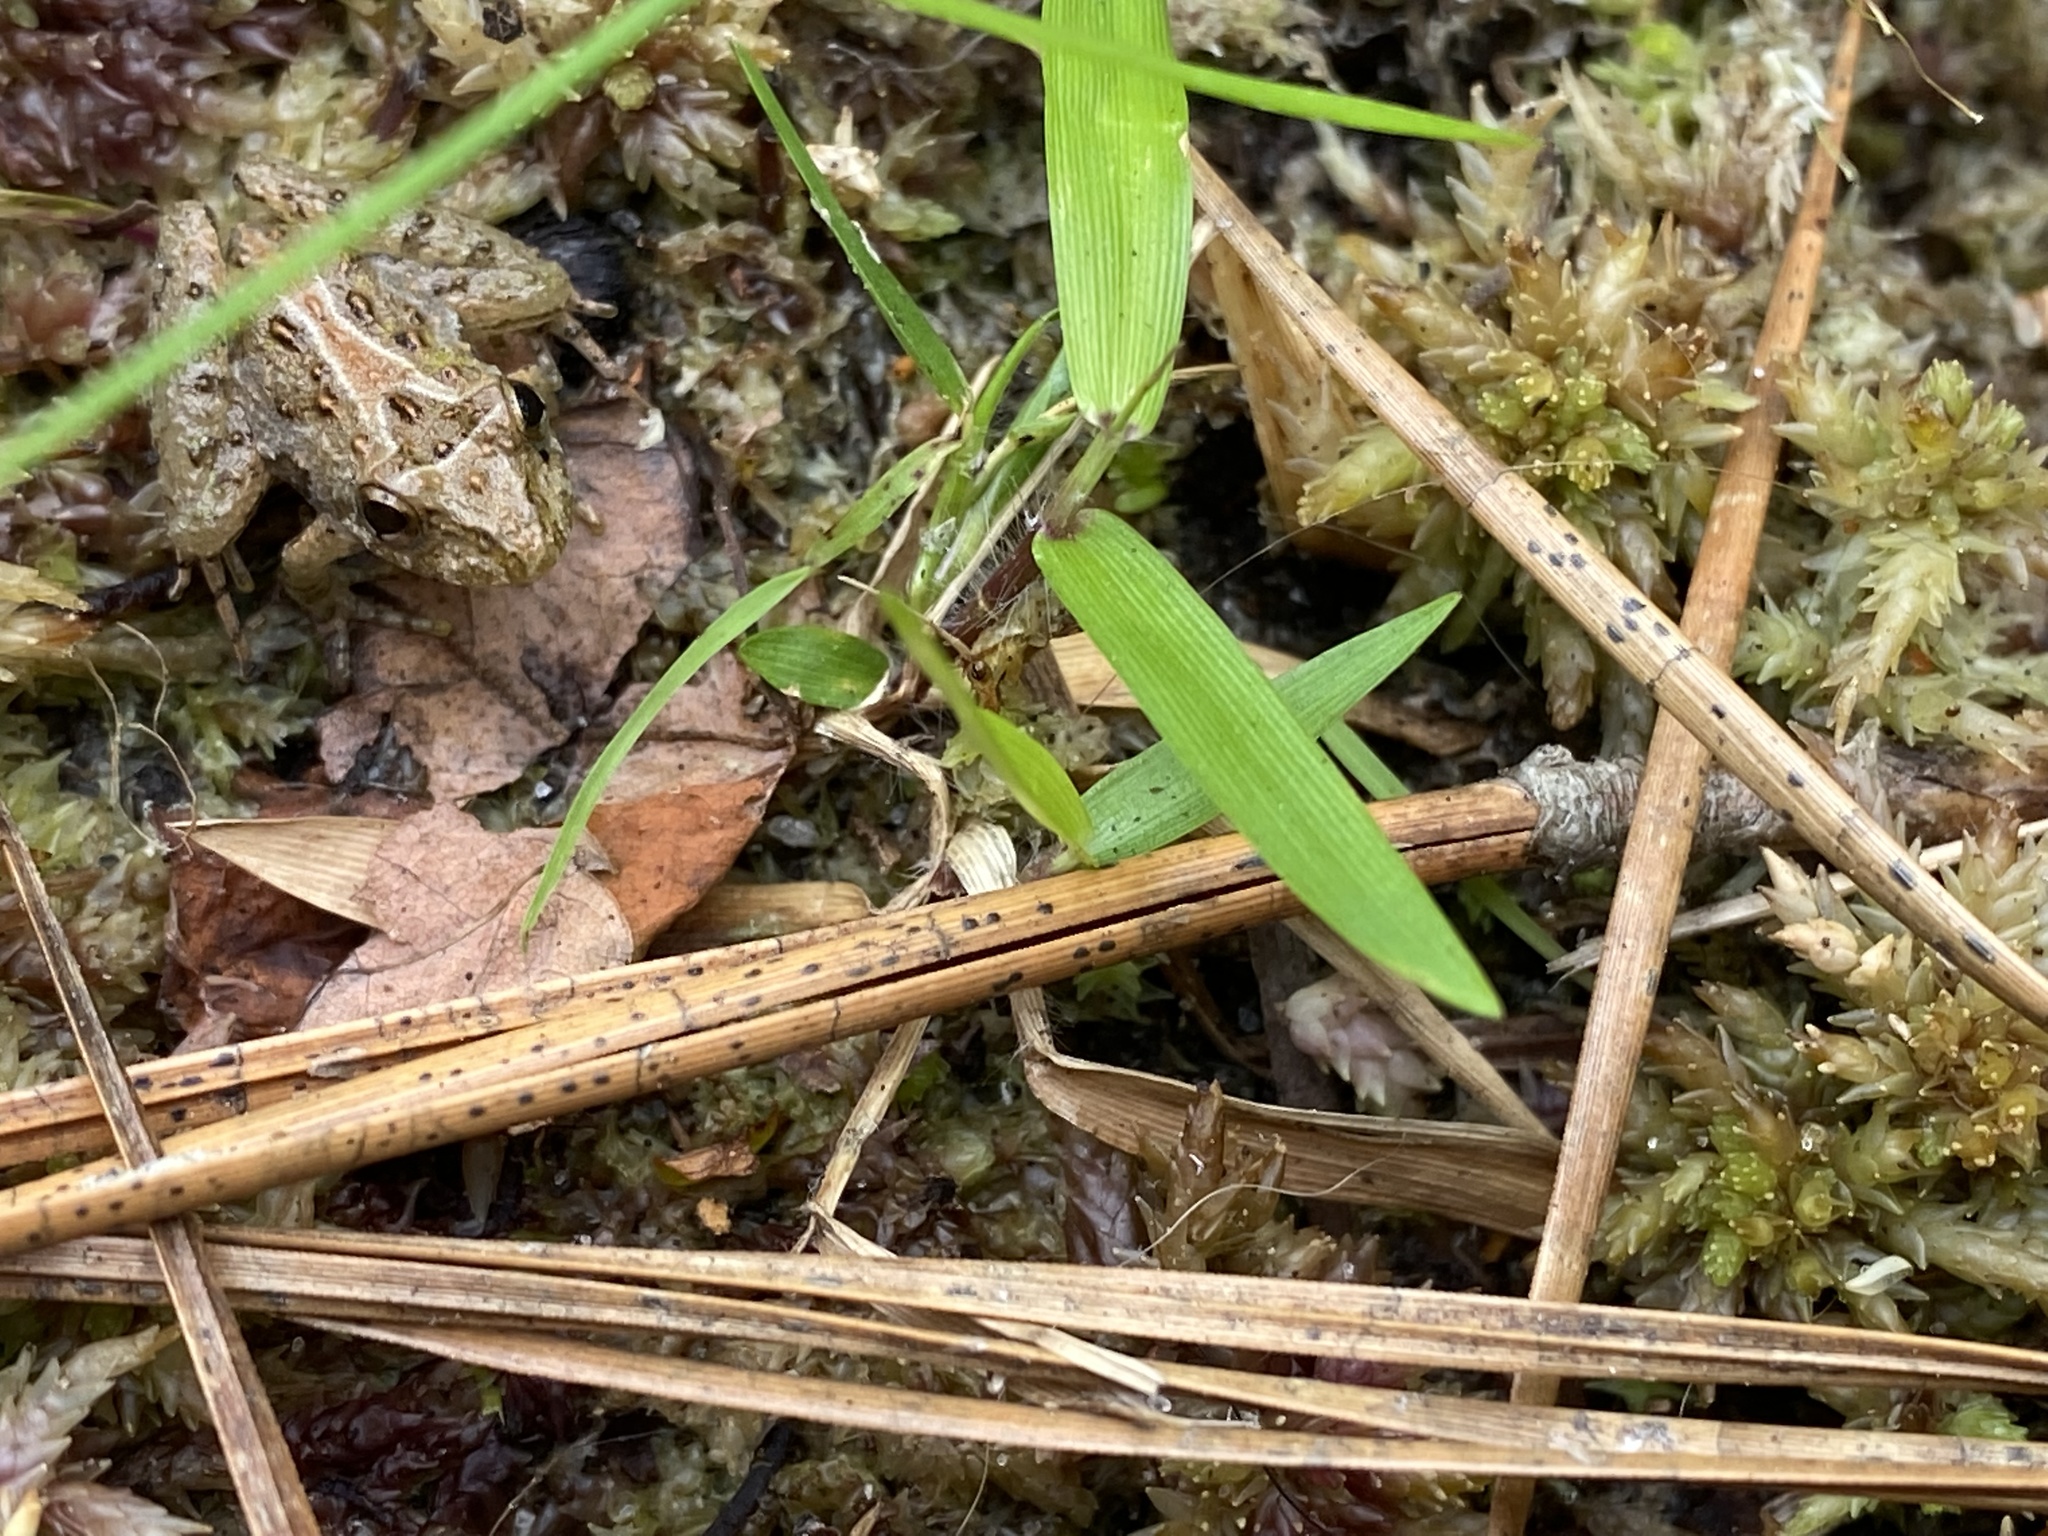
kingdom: Animalia
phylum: Chordata
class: Amphibia
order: Anura
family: Hylidae
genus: Acris
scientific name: Acris gryllus
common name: Southern cricket frog
